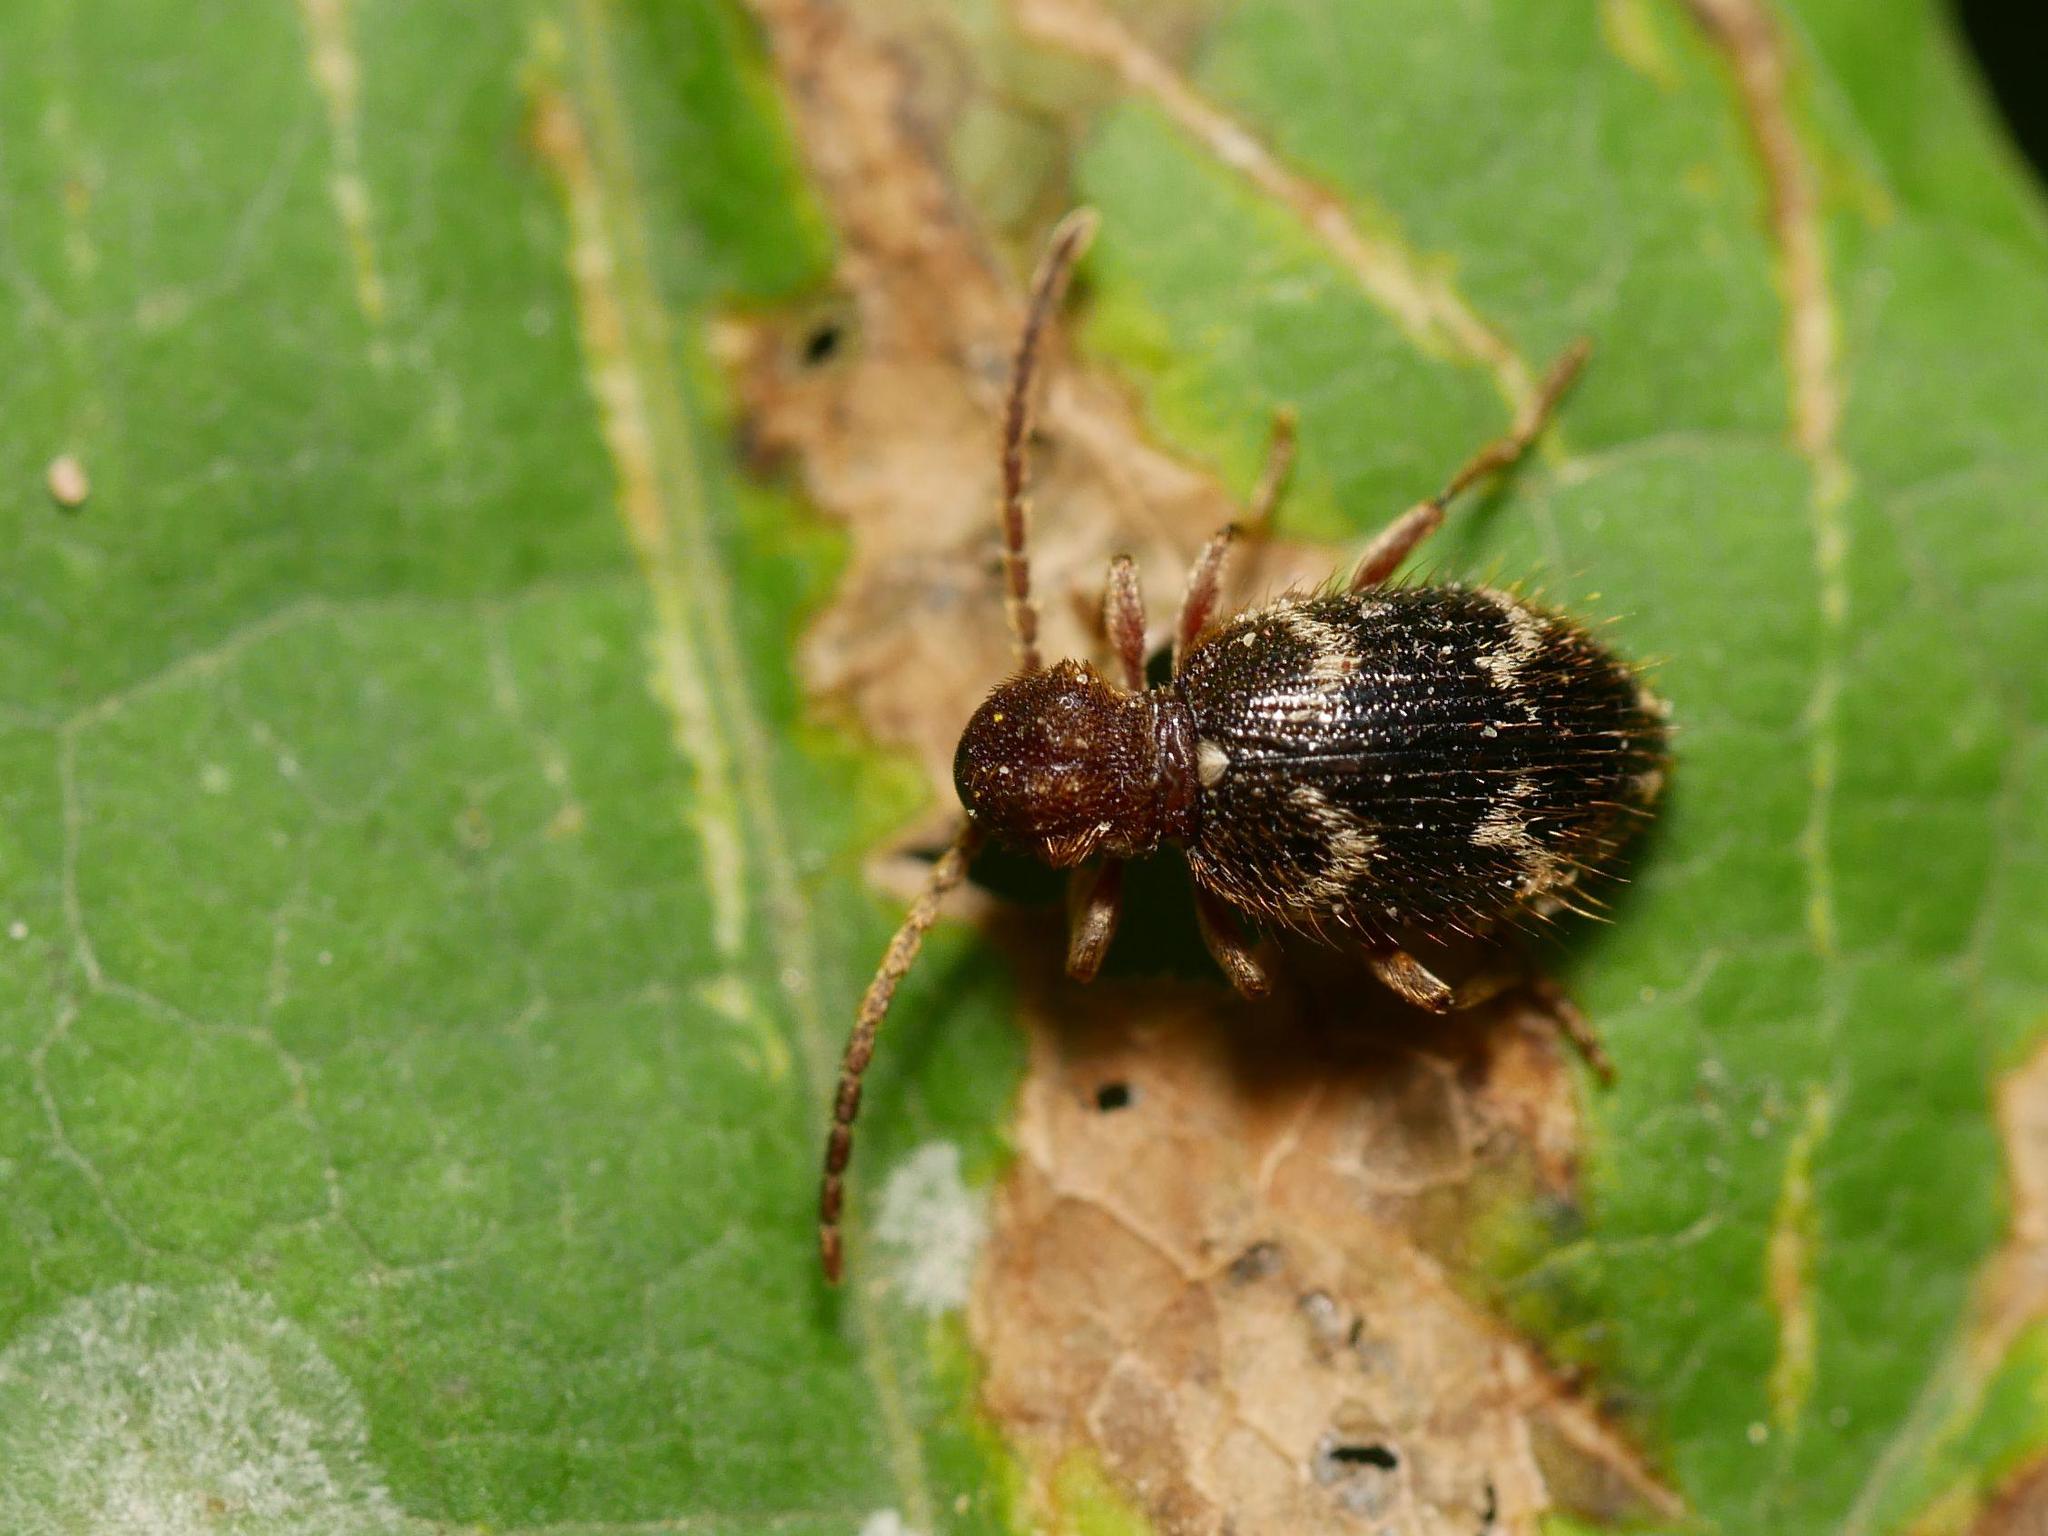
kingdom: Animalia
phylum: Arthropoda
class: Insecta
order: Coleoptera
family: Ptinidae
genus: Ptinus
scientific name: Ptinus rufipes
